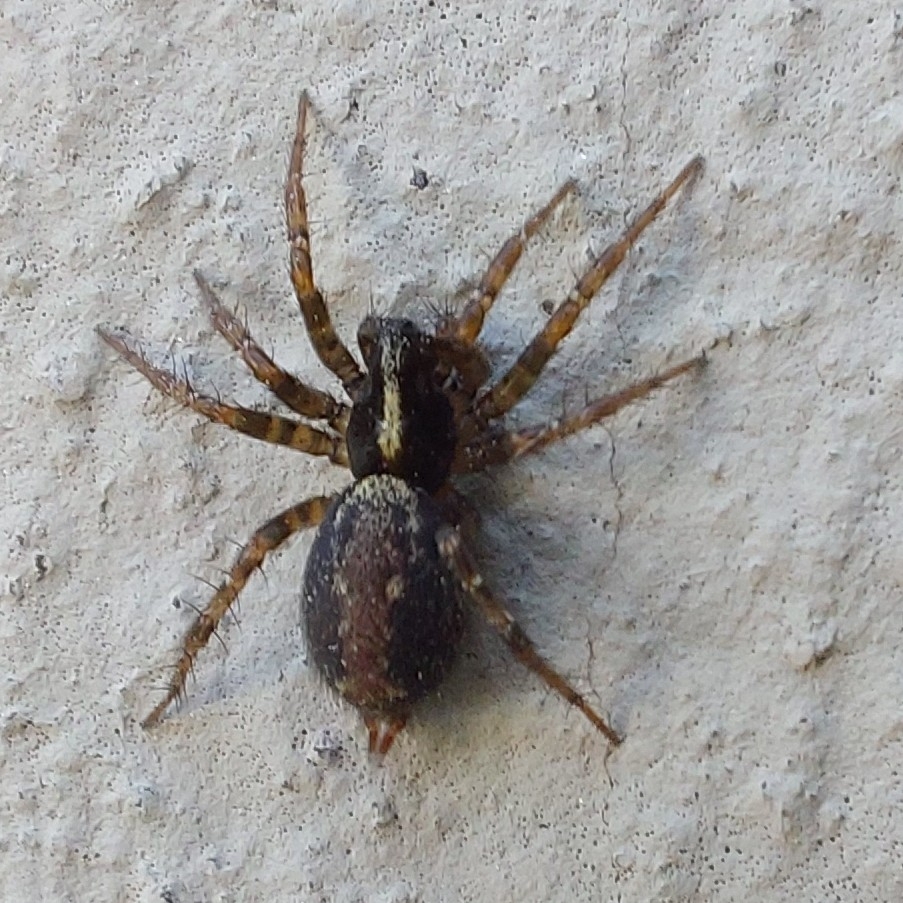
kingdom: Animalia
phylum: Arthropoda
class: Arachnida
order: Araneae
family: Agelenidae
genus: Textrix
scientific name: Textrix denticulata
